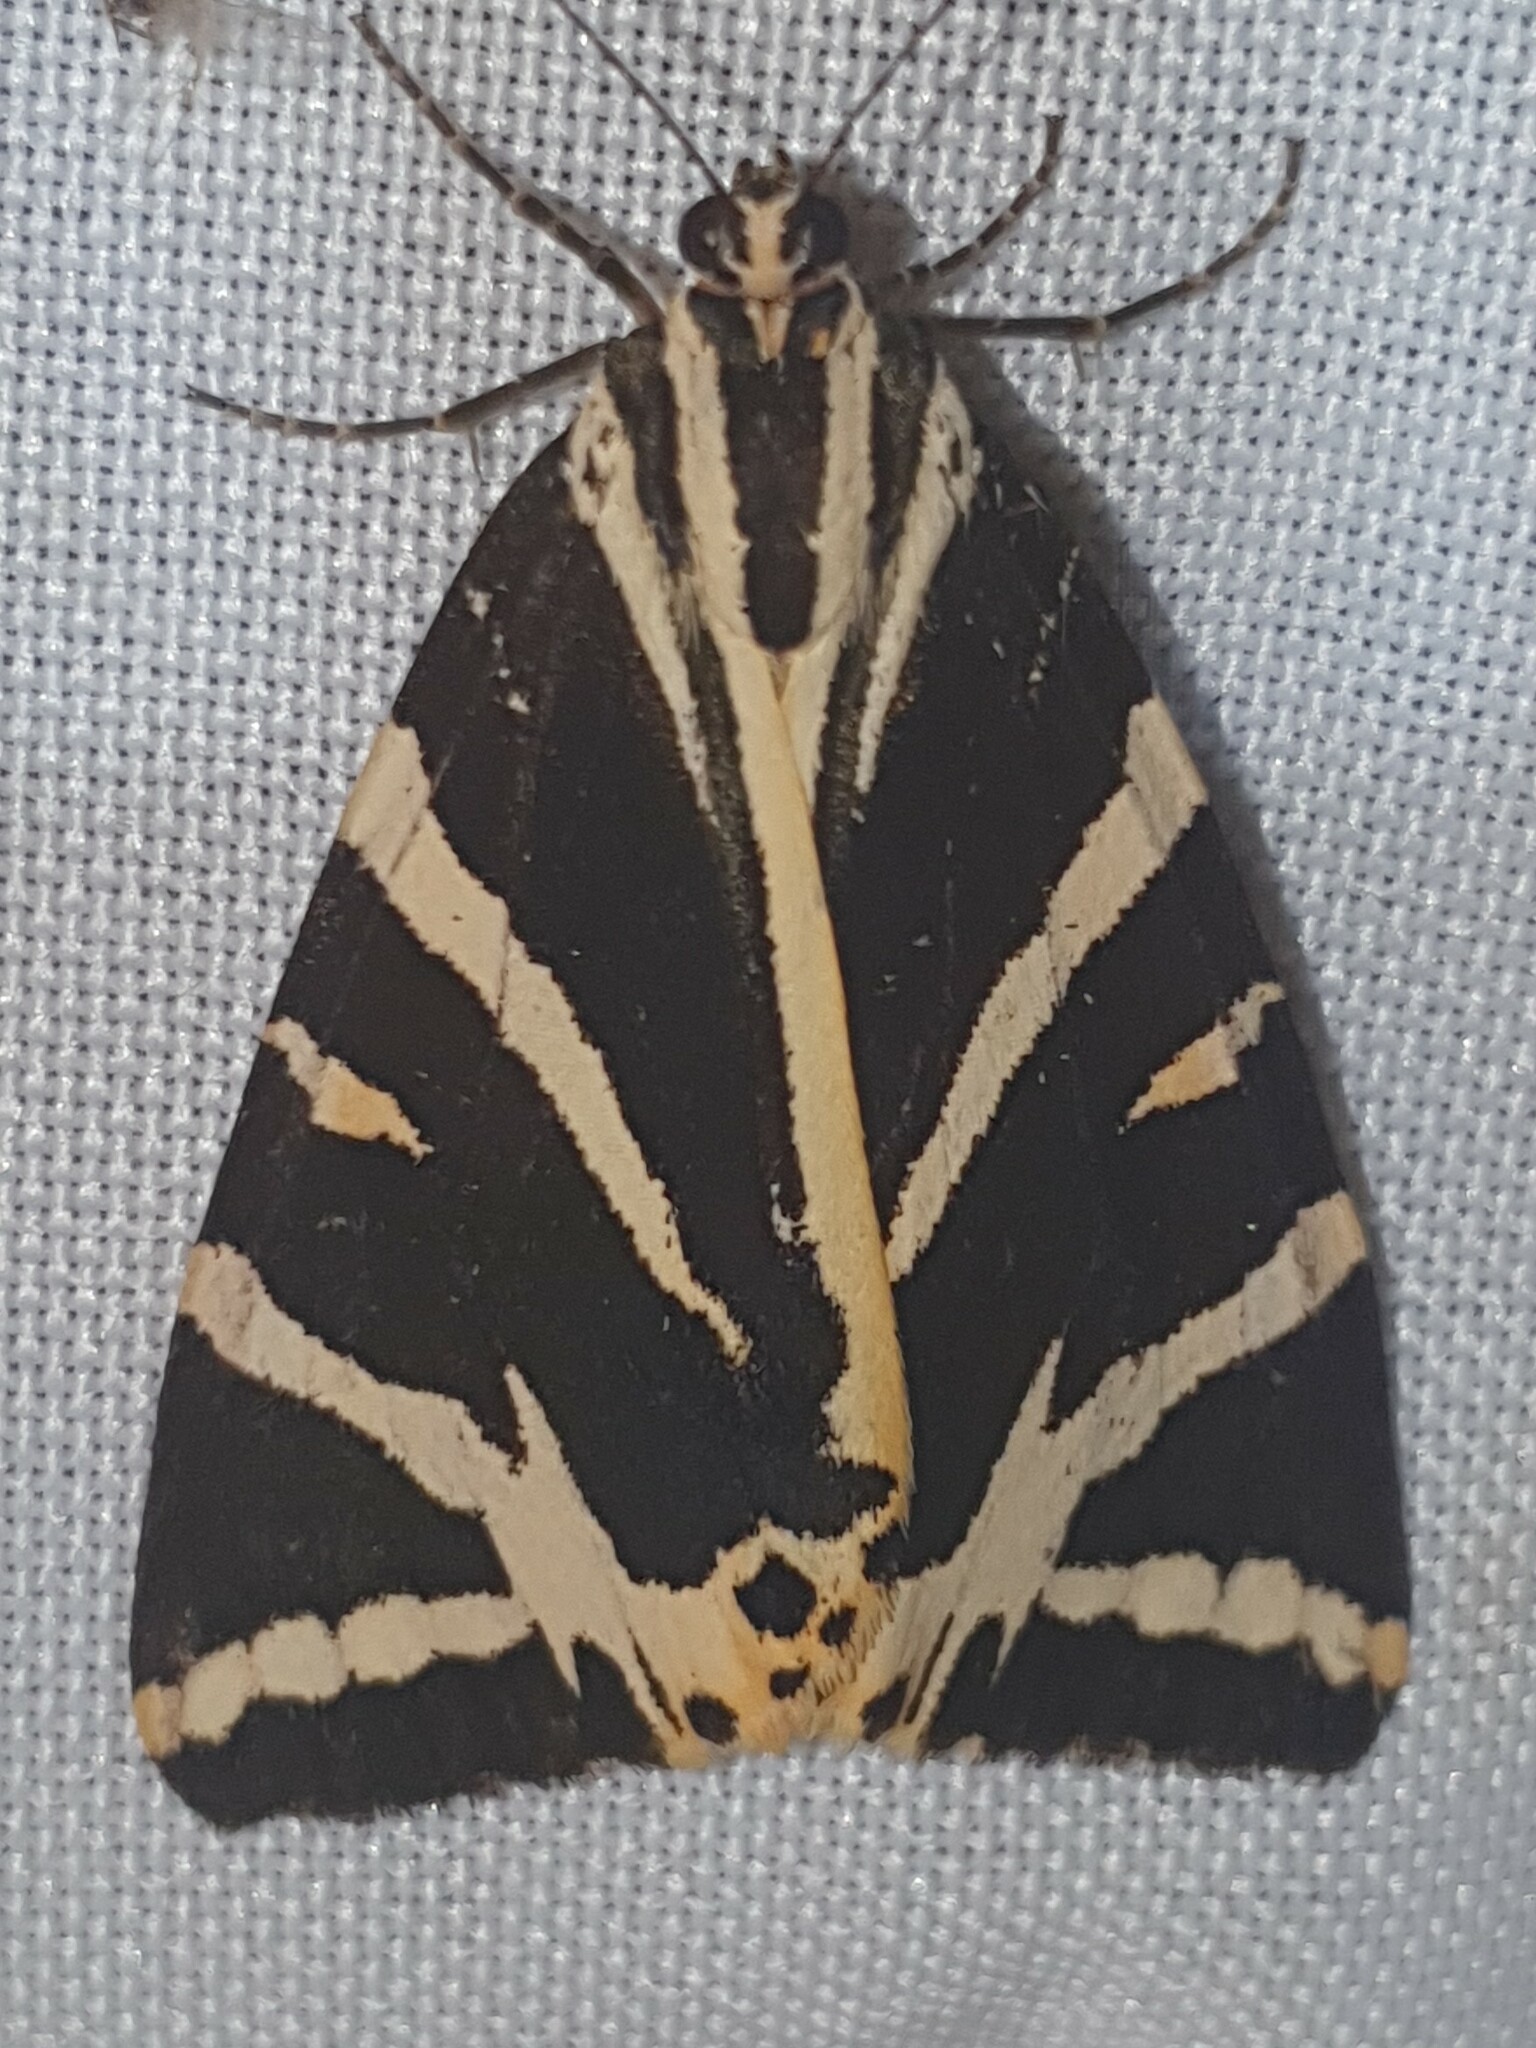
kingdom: Animalia
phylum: Arthropoda
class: Insecta
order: Lepidoptera
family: Erebidae
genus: Euplagia
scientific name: Euplagia quadripunctaria
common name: Jersey tiger
